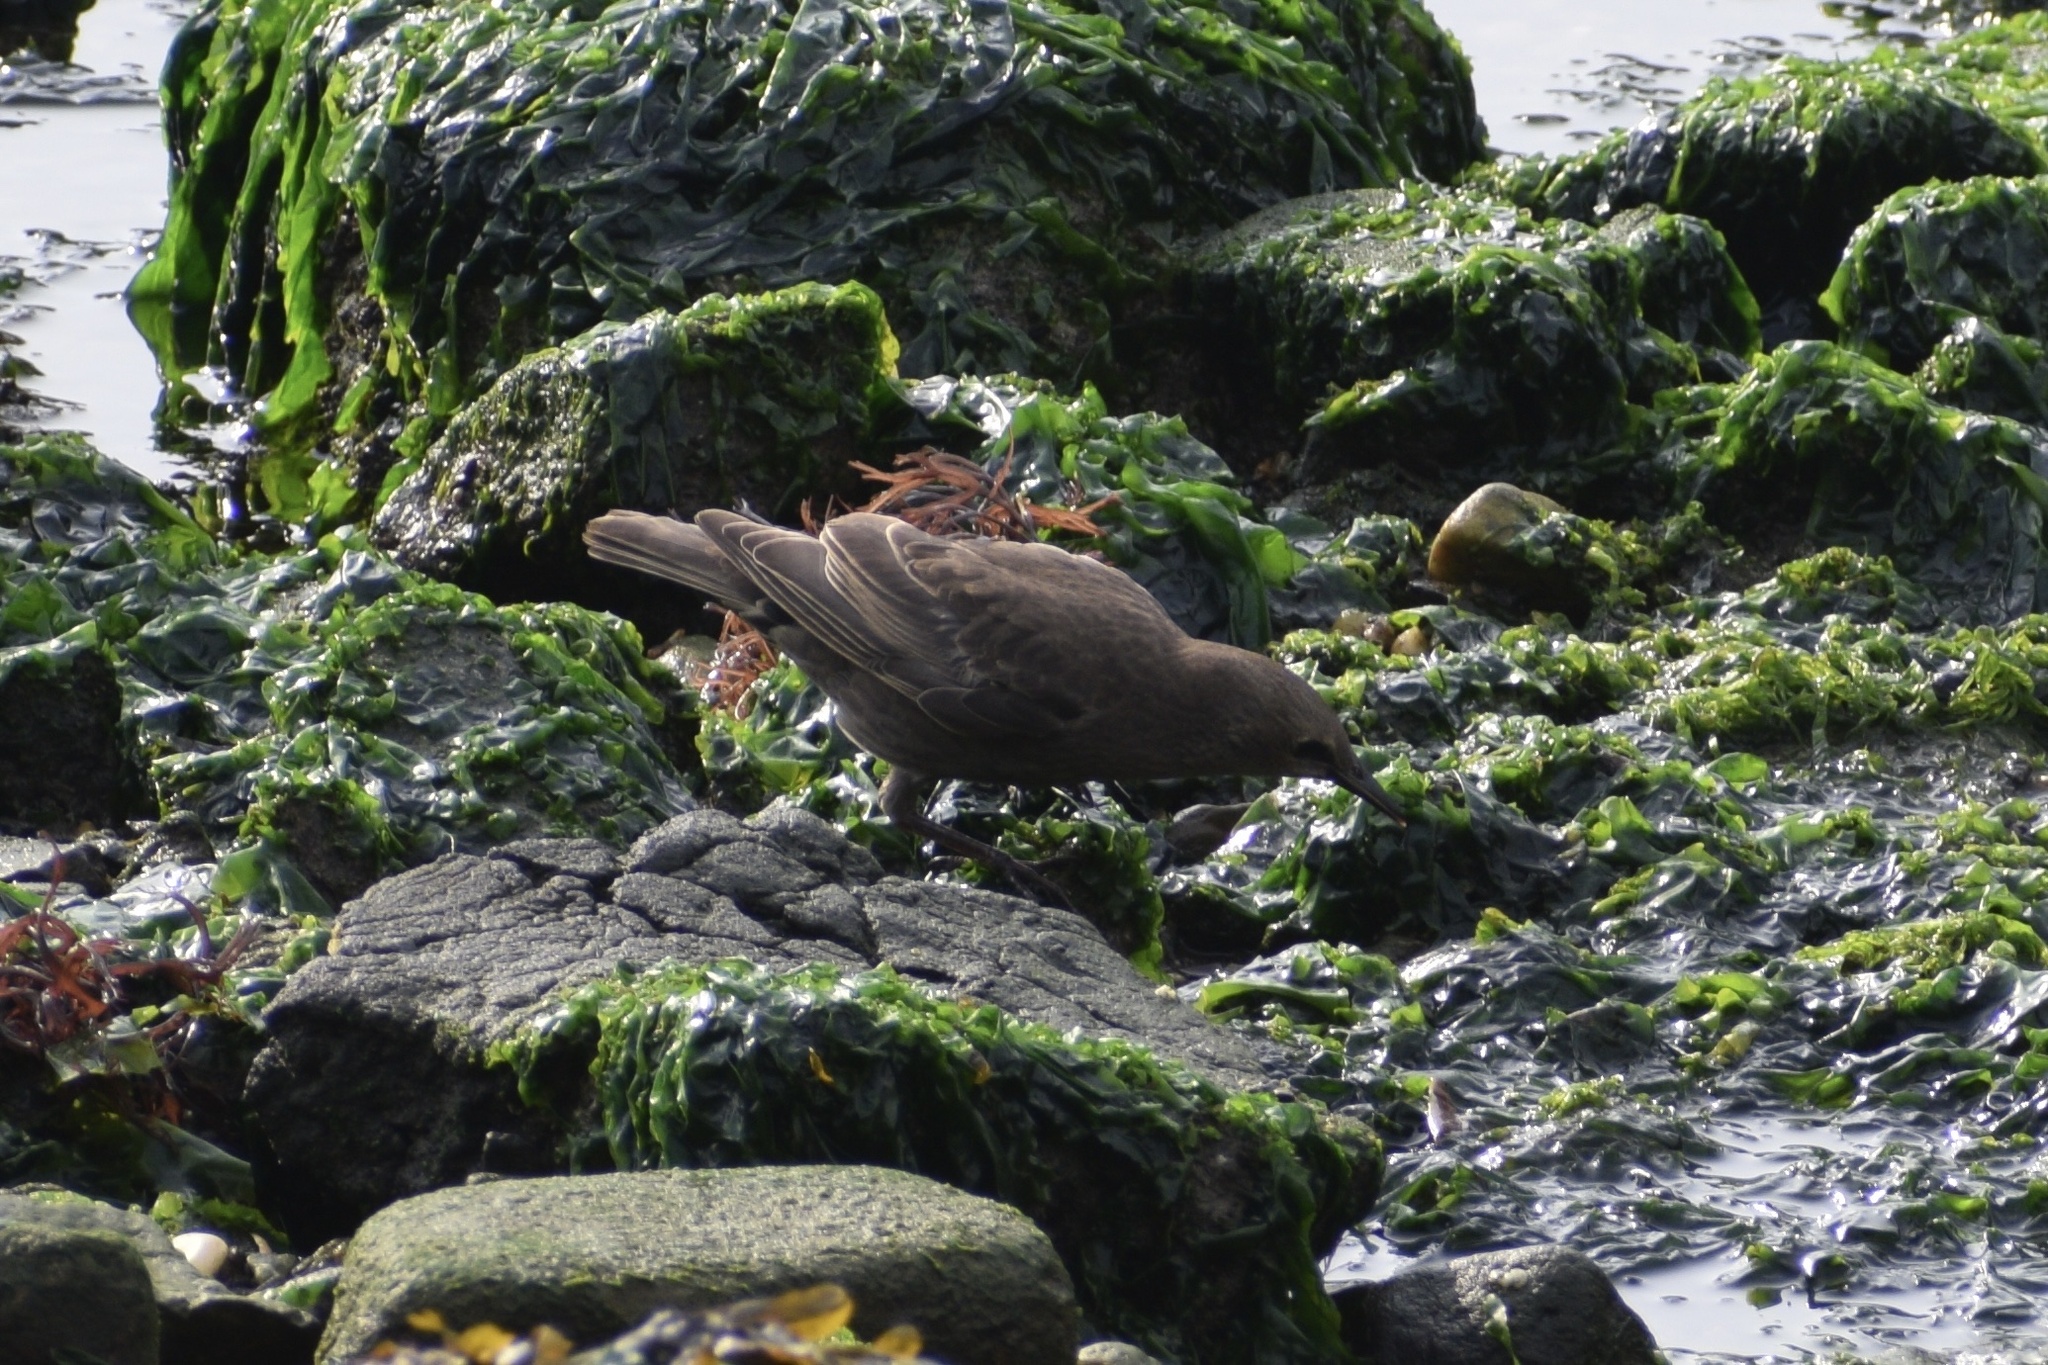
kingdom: Animalia
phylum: Chordata
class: Aves
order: Passeriformes
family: Sturnidae
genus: Sturnus
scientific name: Sturnus vulgaris
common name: Common starling
